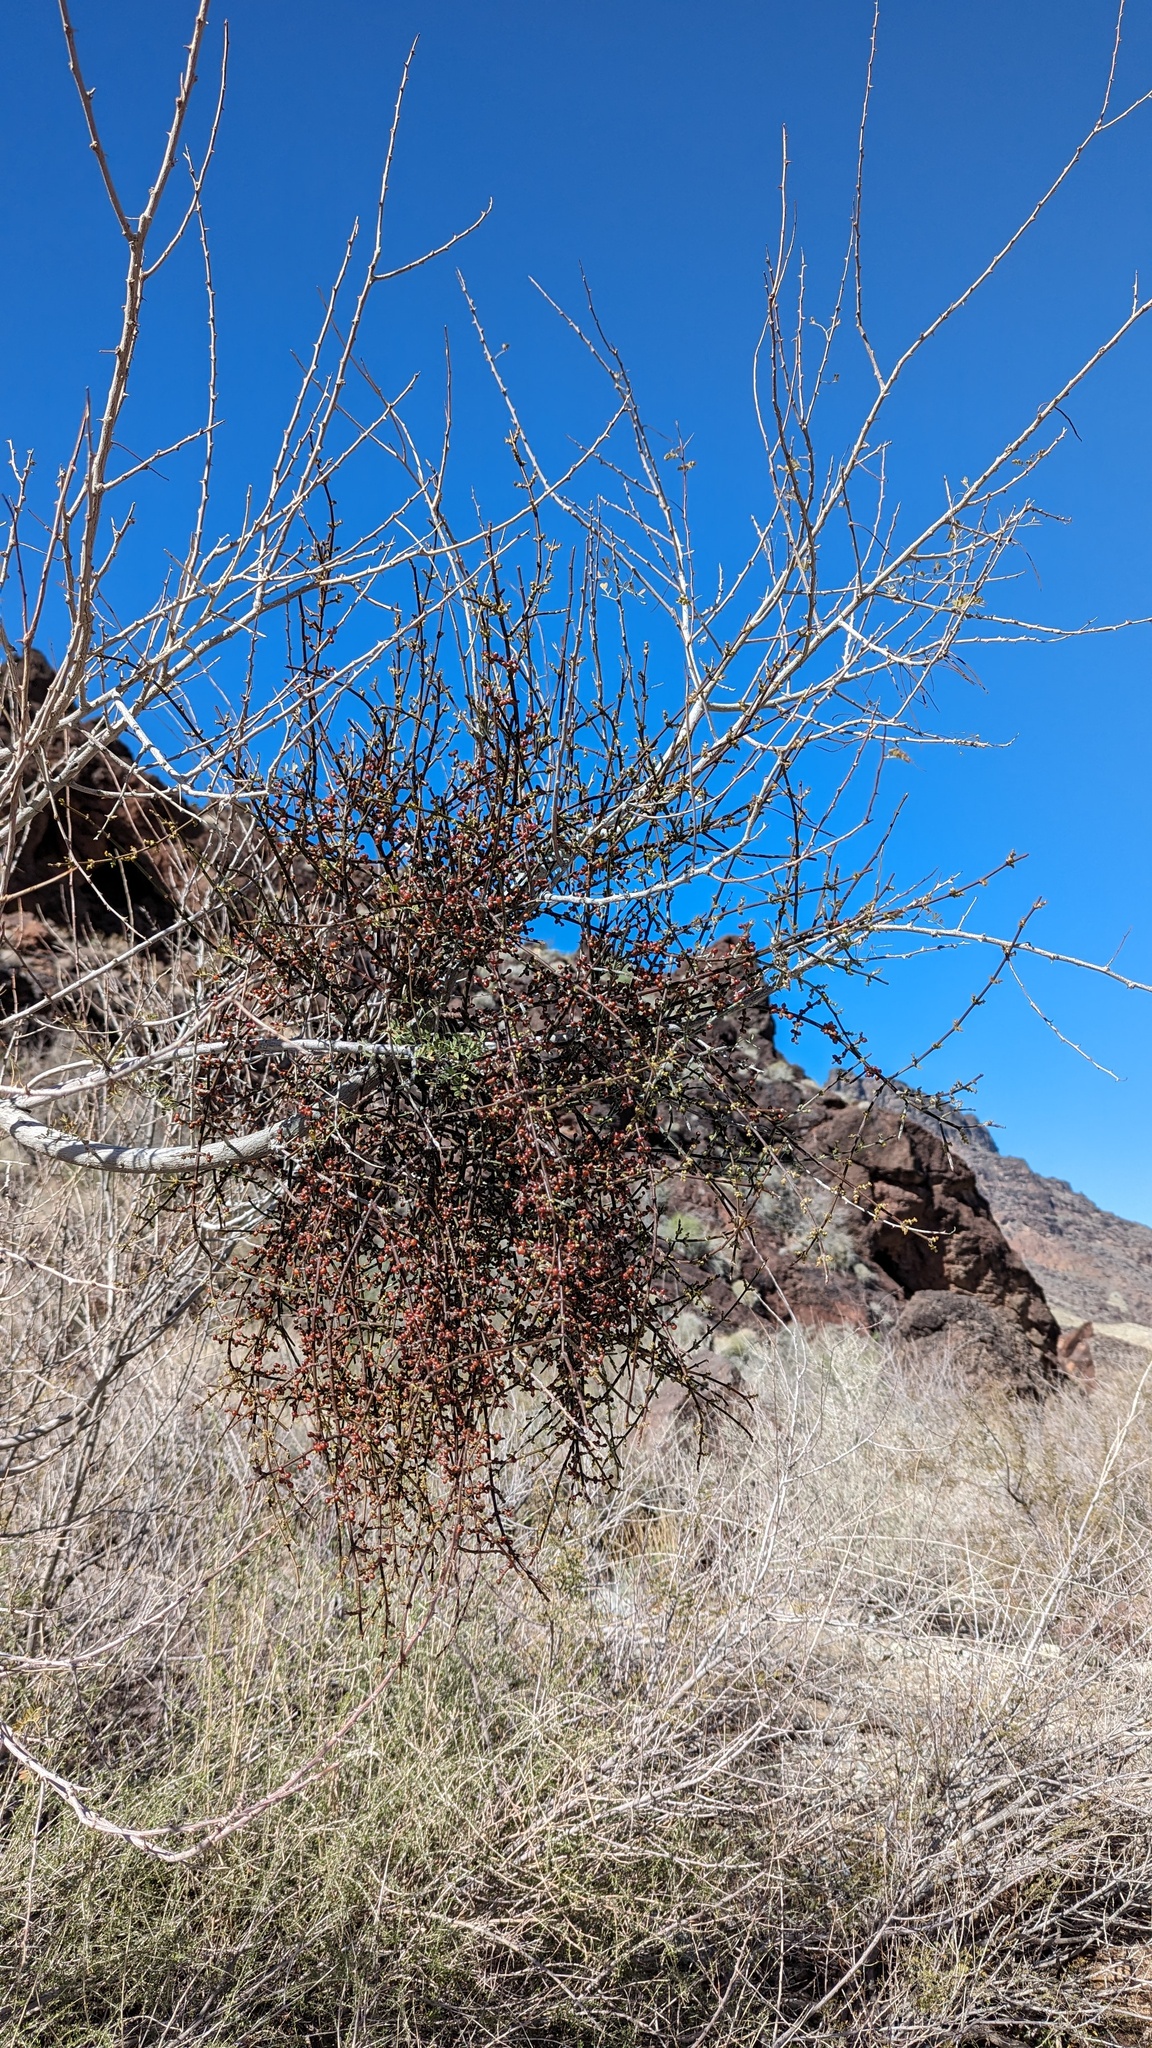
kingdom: Plantae
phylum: Tracheophyta
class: Magnoliopsida
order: Santalales
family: Viscaceae
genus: Phoradendron
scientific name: Phoradendron californicum
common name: Acacia mistletoe
